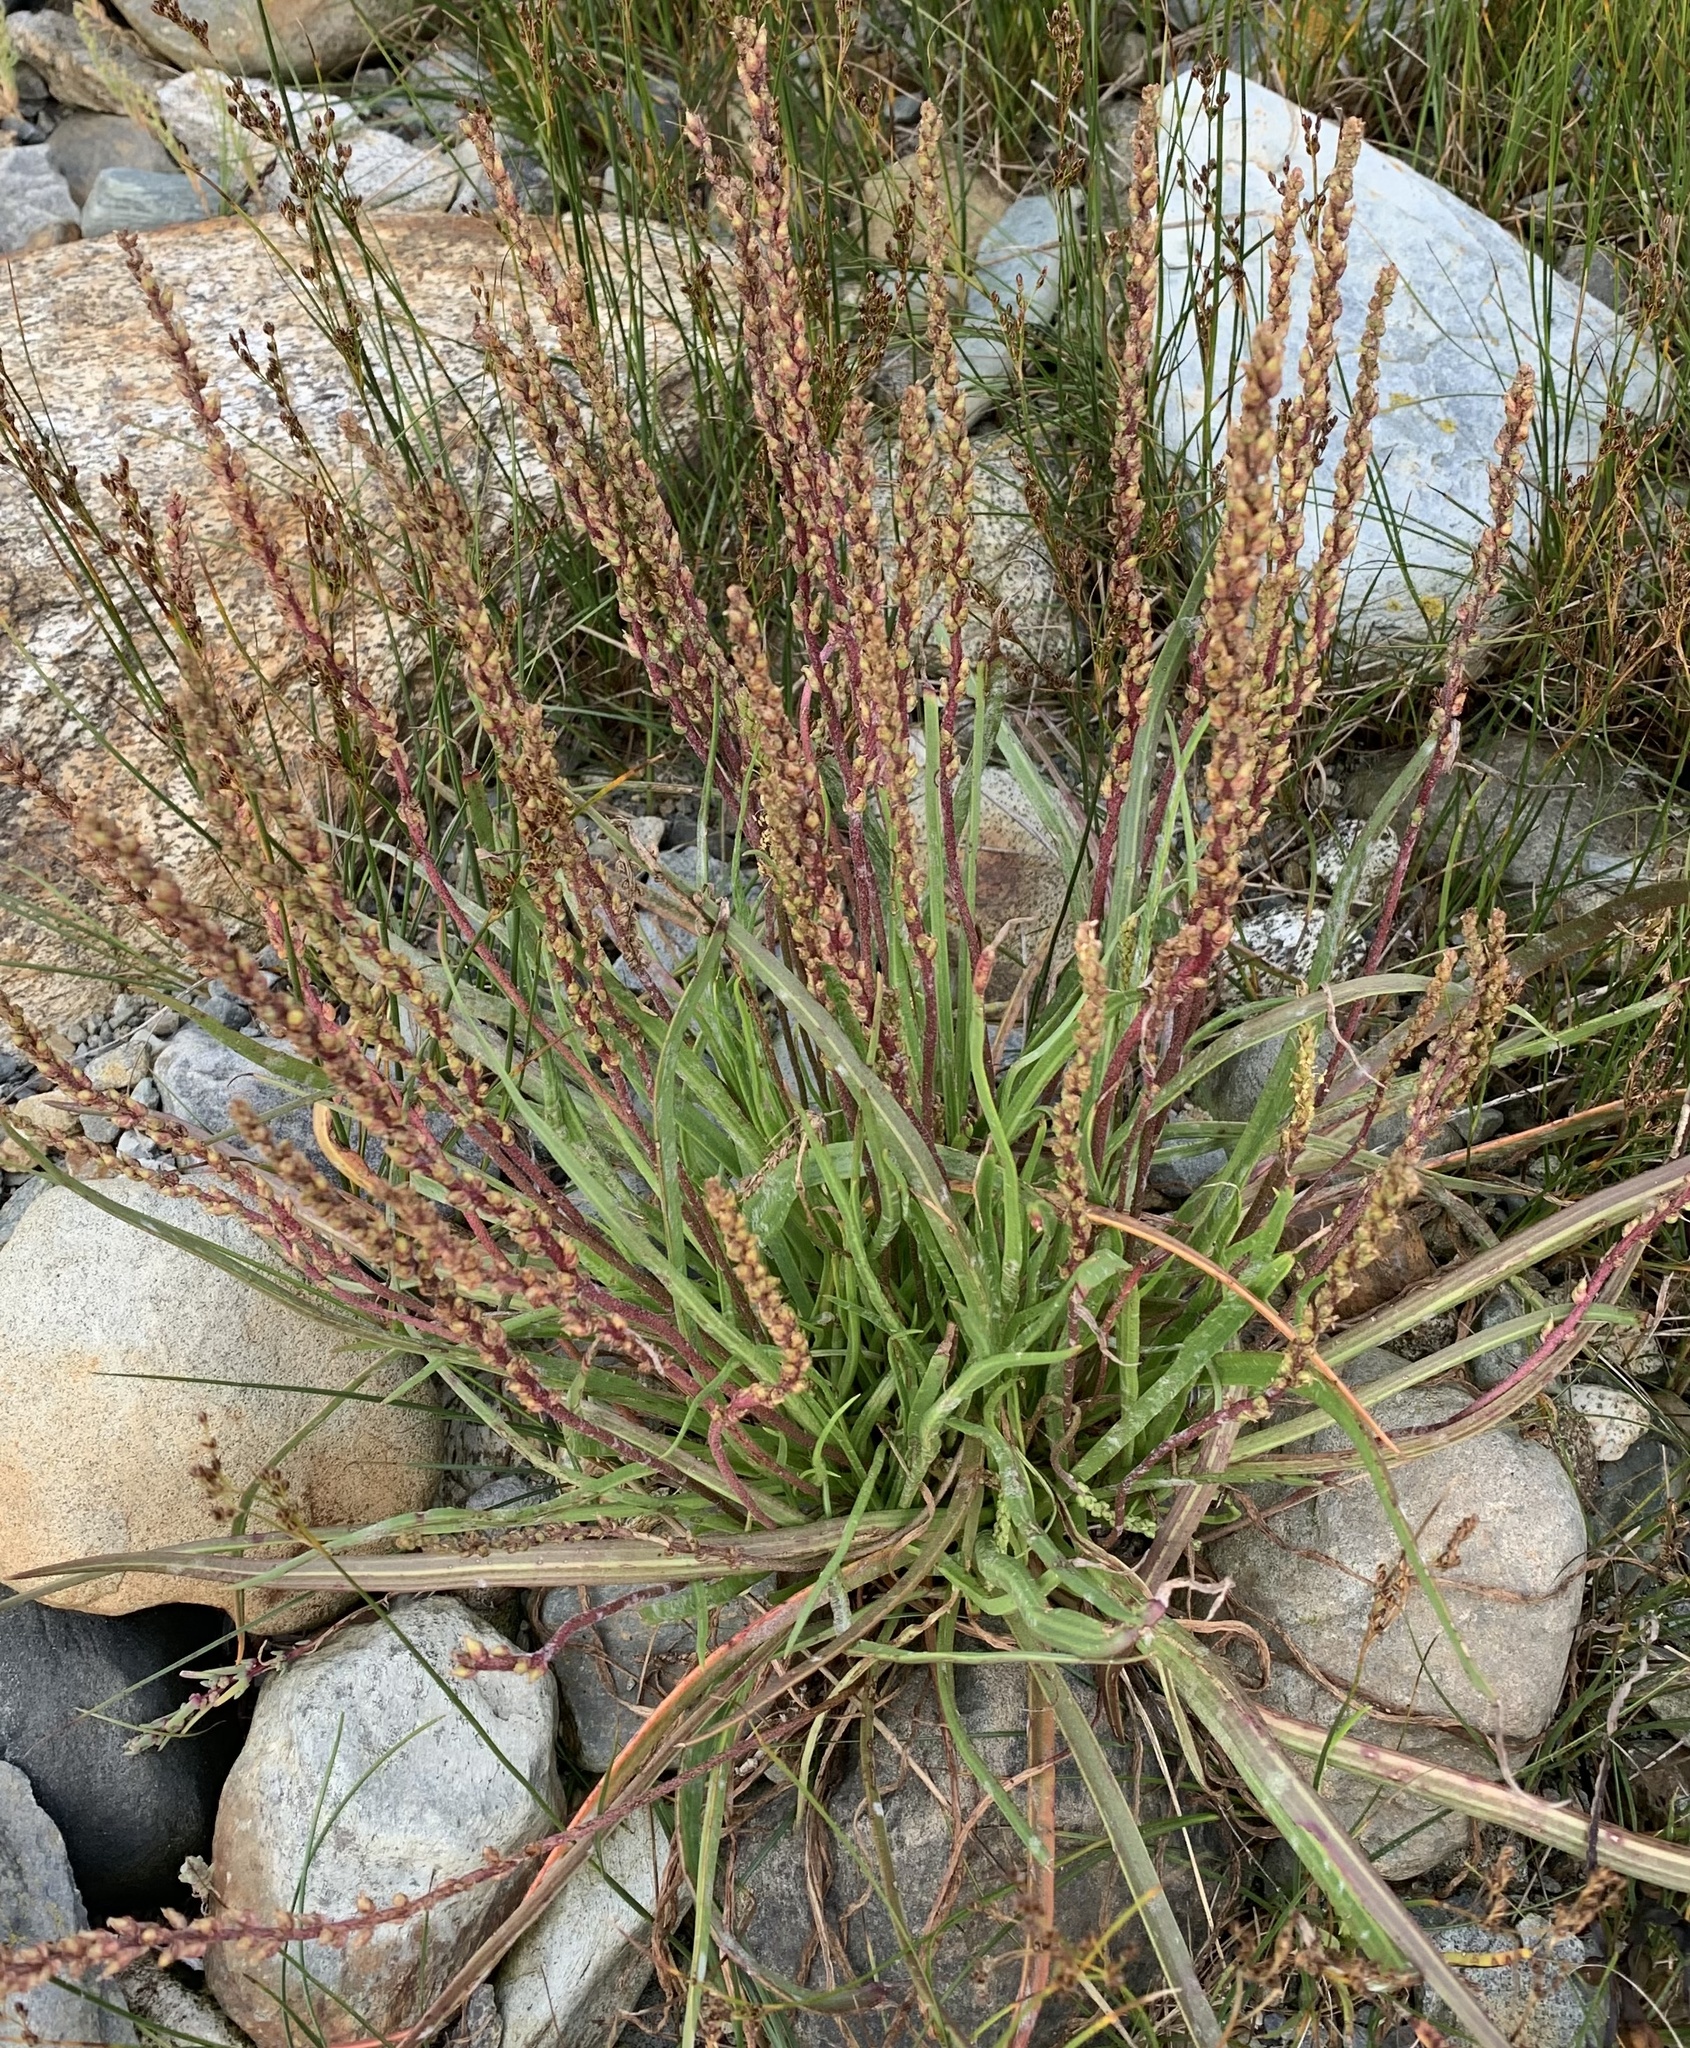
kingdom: Plantae
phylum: Tracheophyta
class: Magnoliopsida
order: Lamiales
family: Plantaginaceae
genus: Plantago
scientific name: Plantago maritima
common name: Sea plantain
